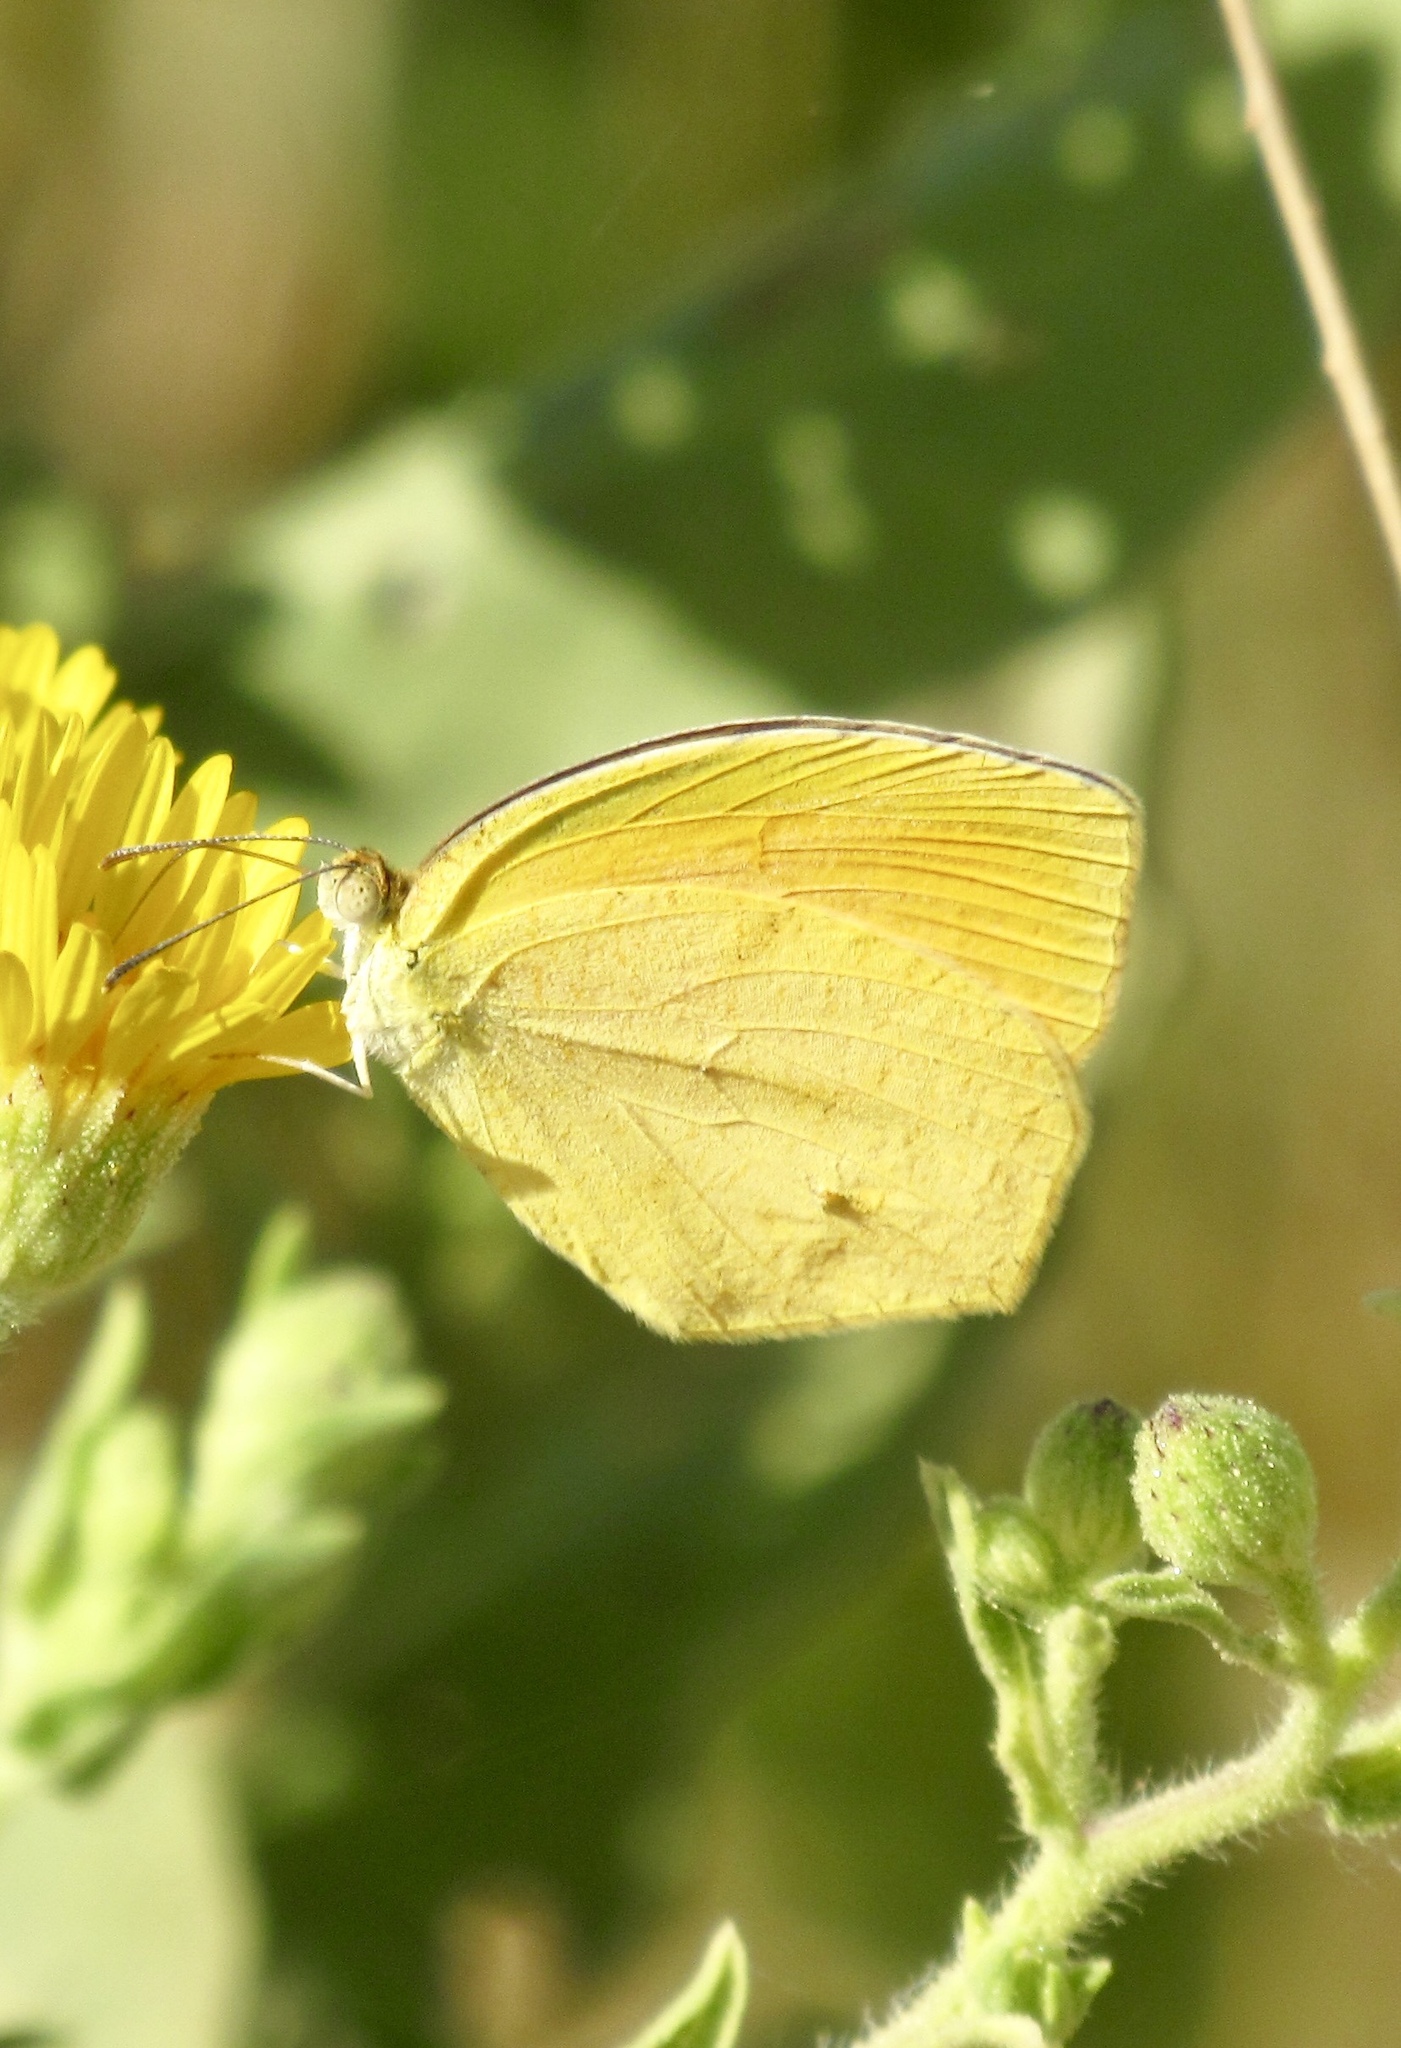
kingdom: Animalia
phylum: Arthropoda
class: Insecta
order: Lepidoptera
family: Pieridae
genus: Pyrisitia
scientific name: Pyrisitia proterpia
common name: Tailed orange
